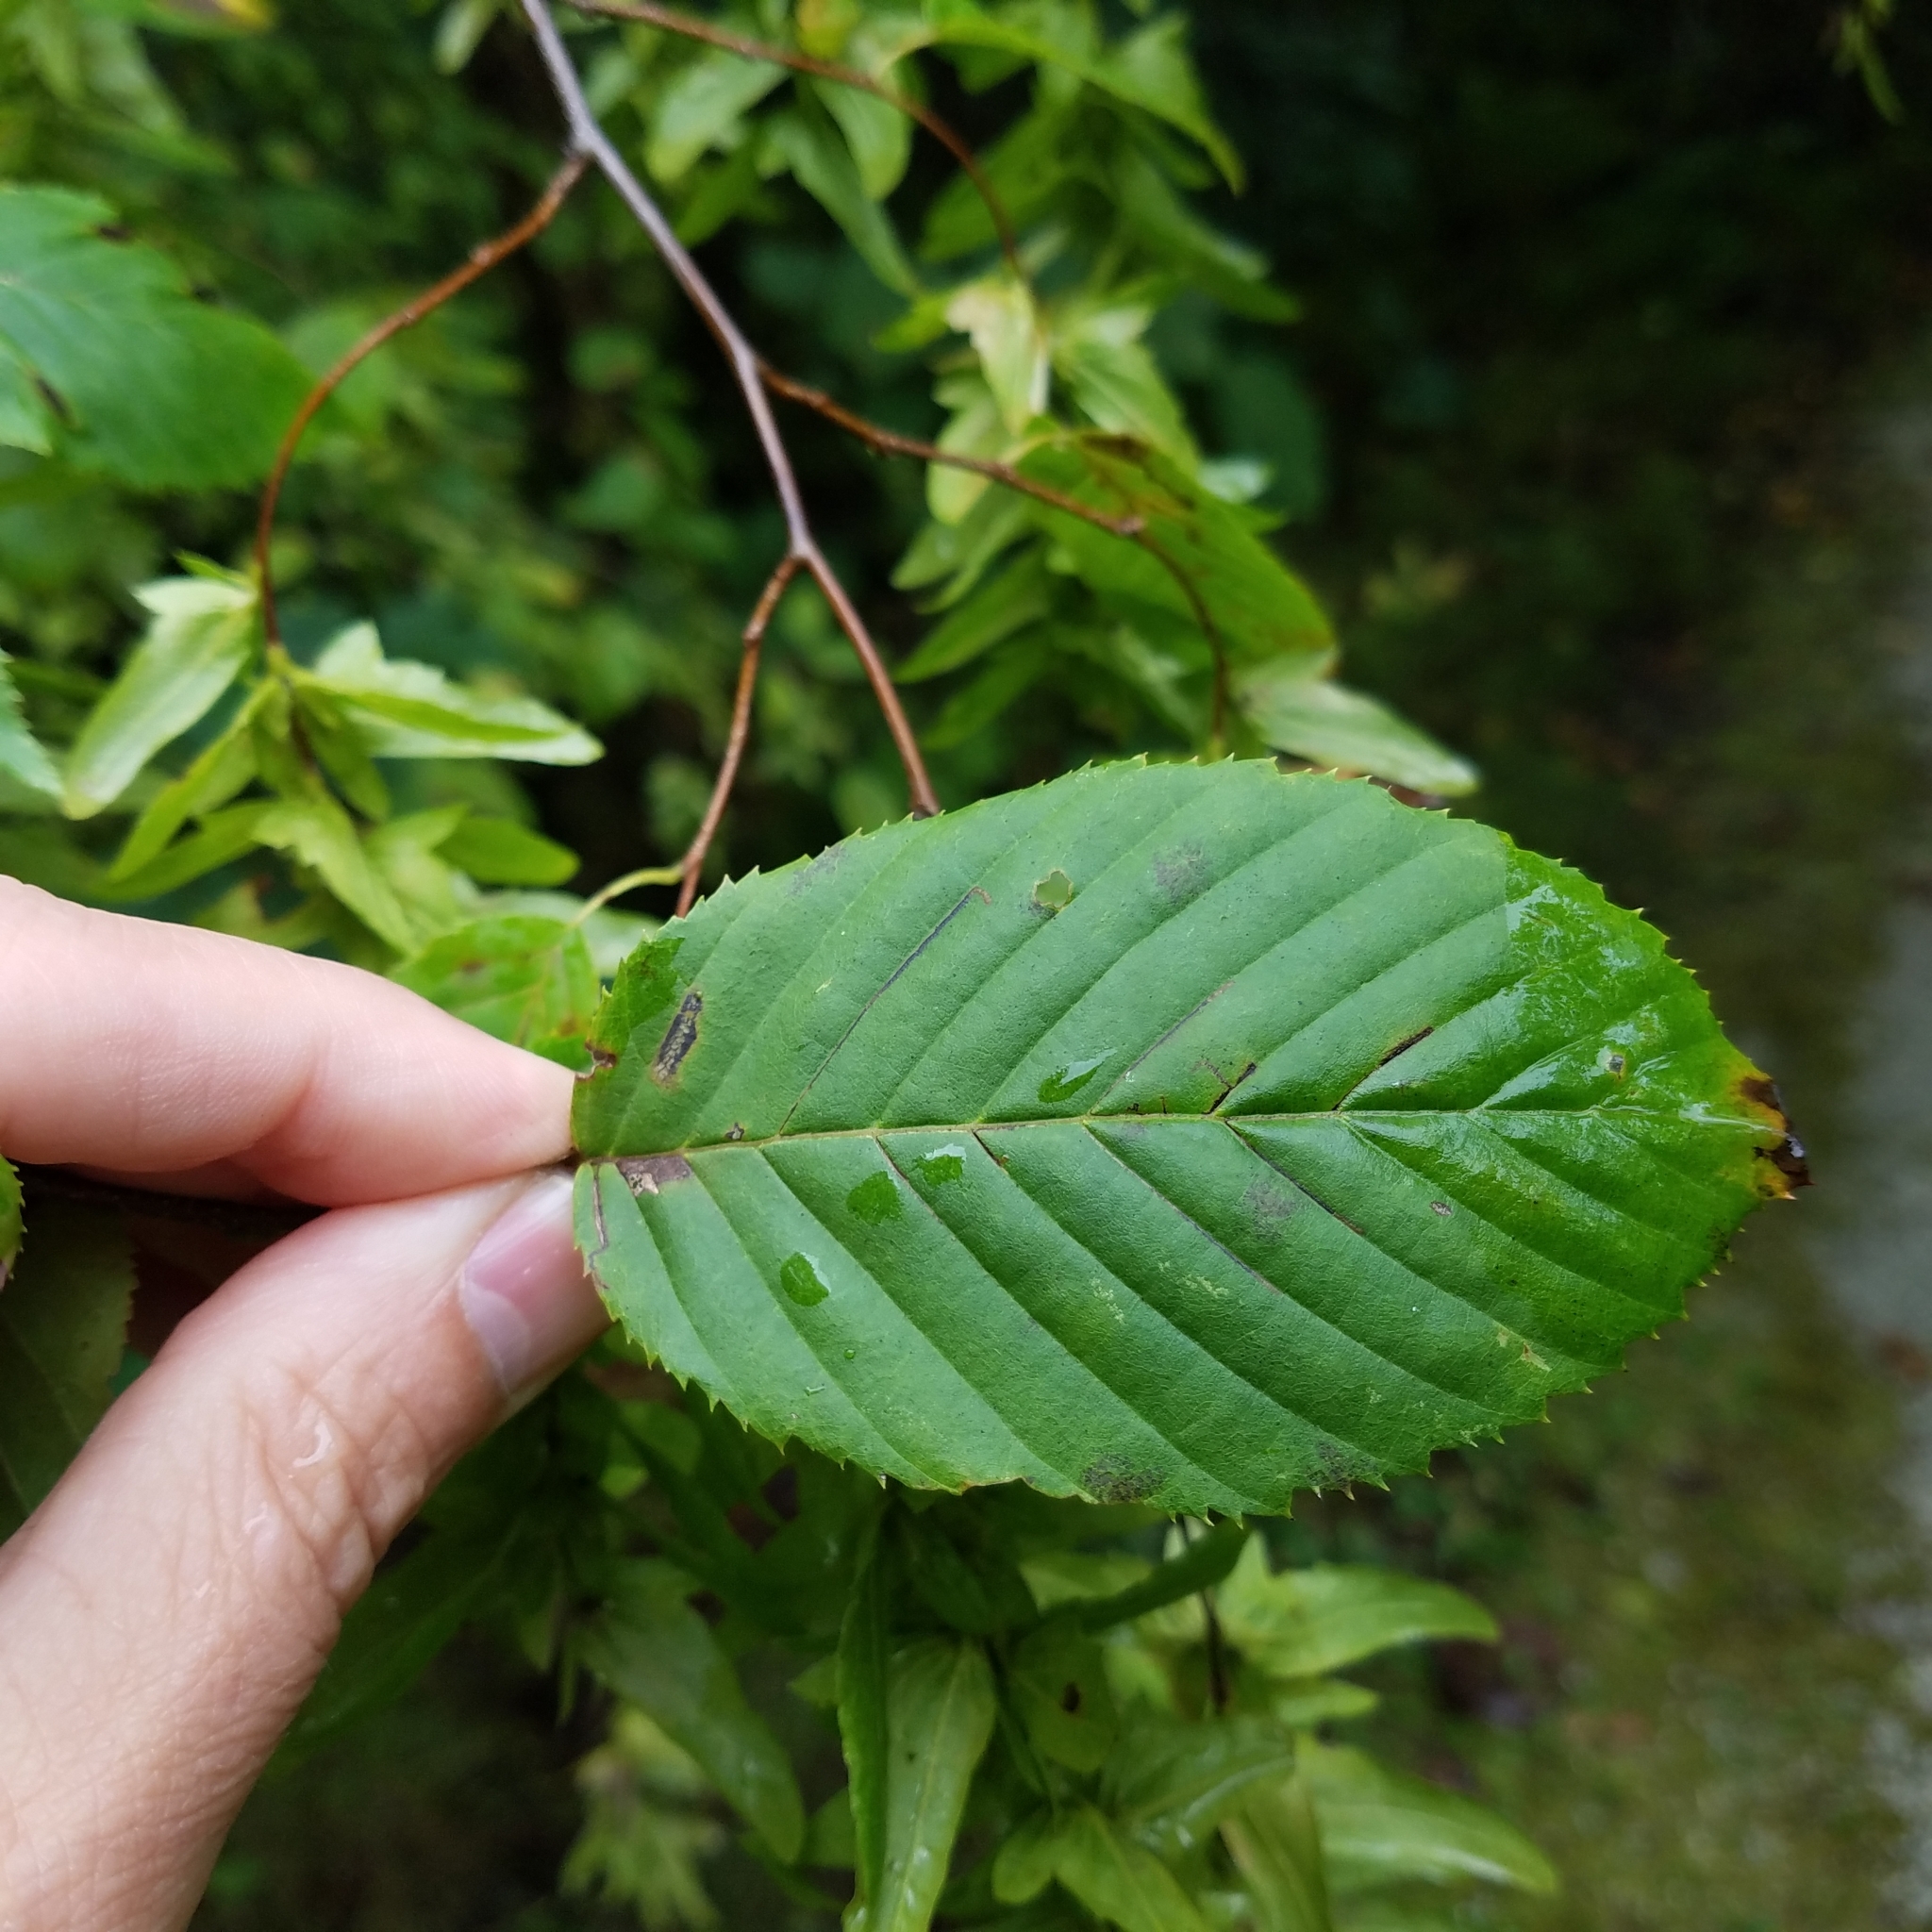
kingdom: Plantae
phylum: Tracheophyta
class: Magnoliopsida
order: Fagales
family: Betulaceae
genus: Carpinus
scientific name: Carpinus caroliniana
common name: American hornbeam
